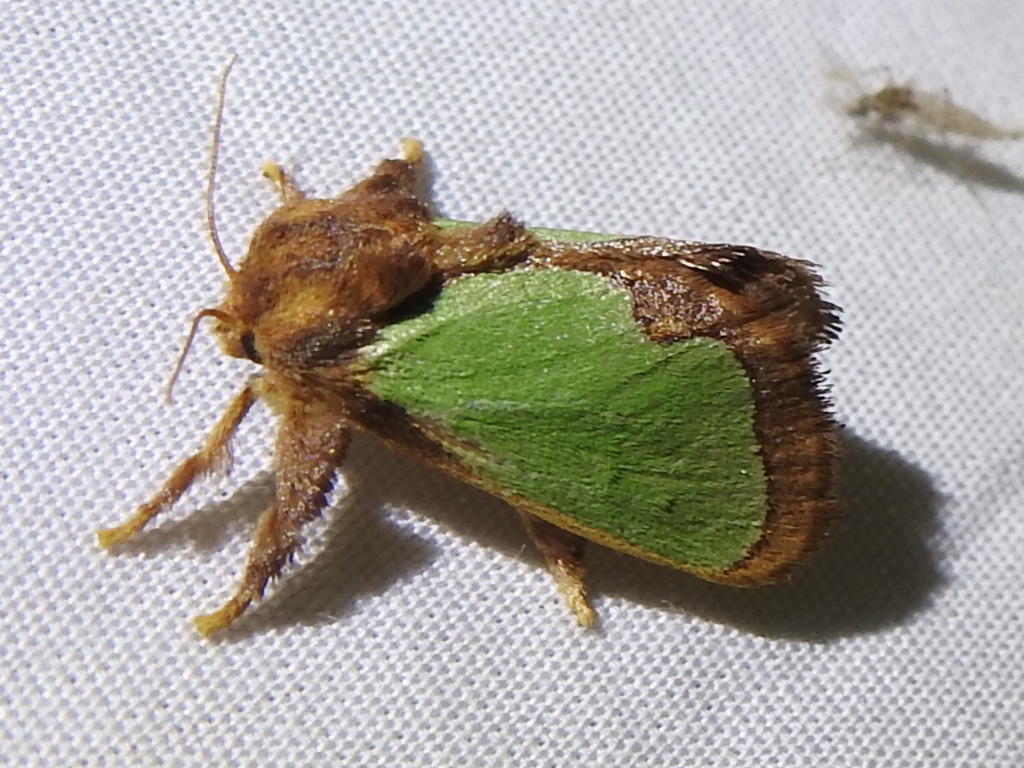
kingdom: Animalia
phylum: Arthropoda
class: Insecta
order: Lepidoptera
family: Limacodidae
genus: Euclea
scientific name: Euclea incisa
